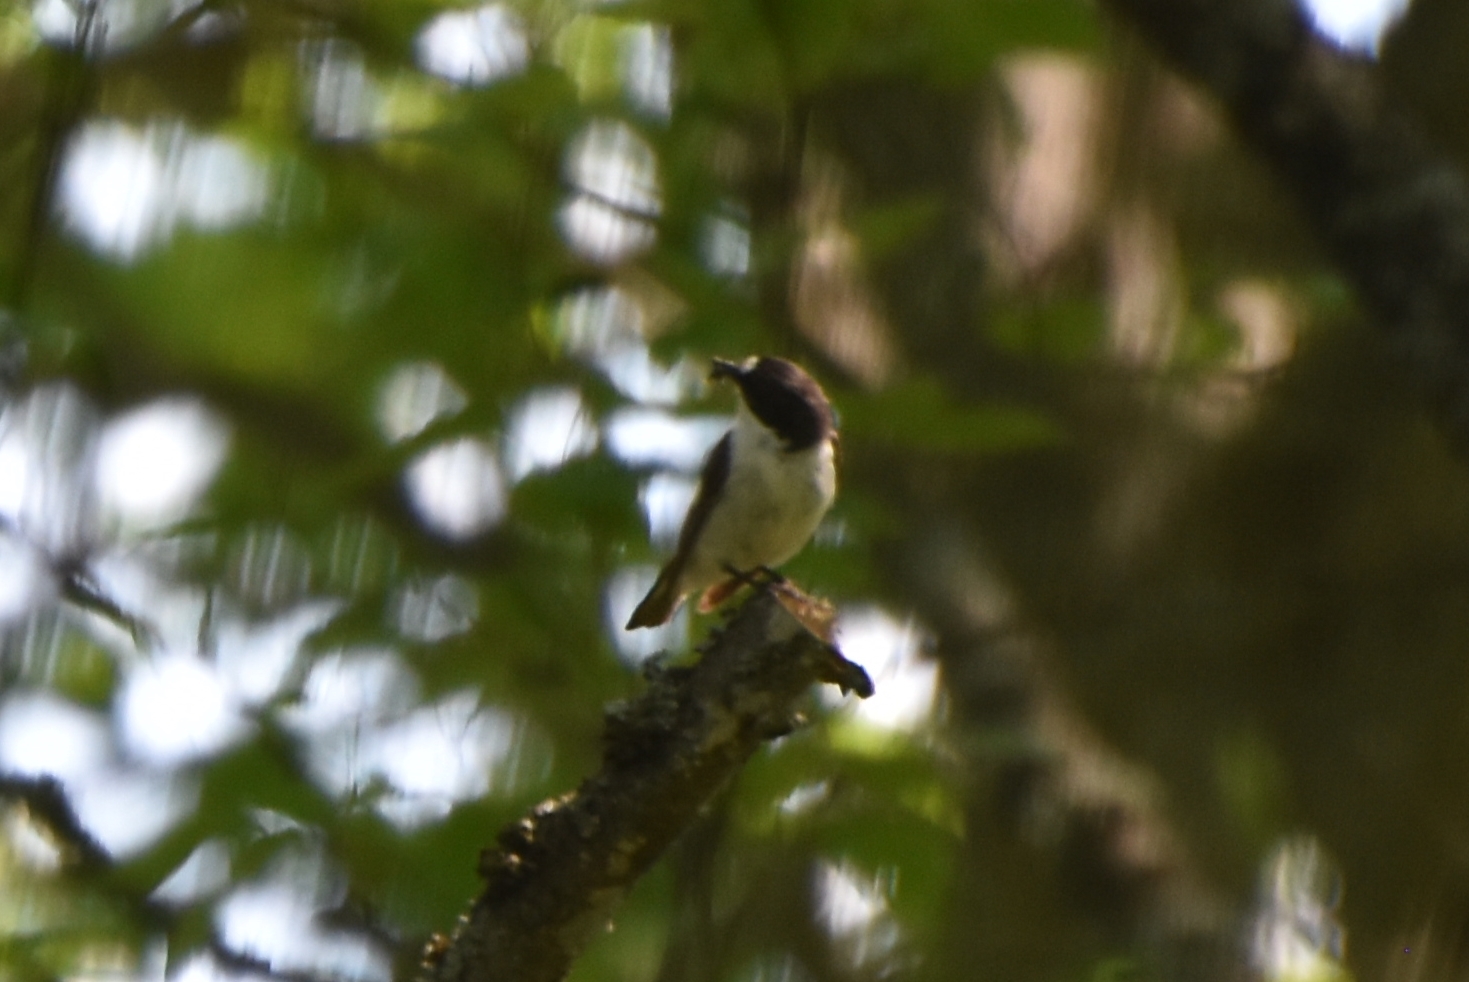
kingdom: Animalia
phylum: Chordata
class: Aves
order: Passeriformes
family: Muscicapidae
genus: Ficedula
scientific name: Ficedula hypoleuca
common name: European pied flycatcher
